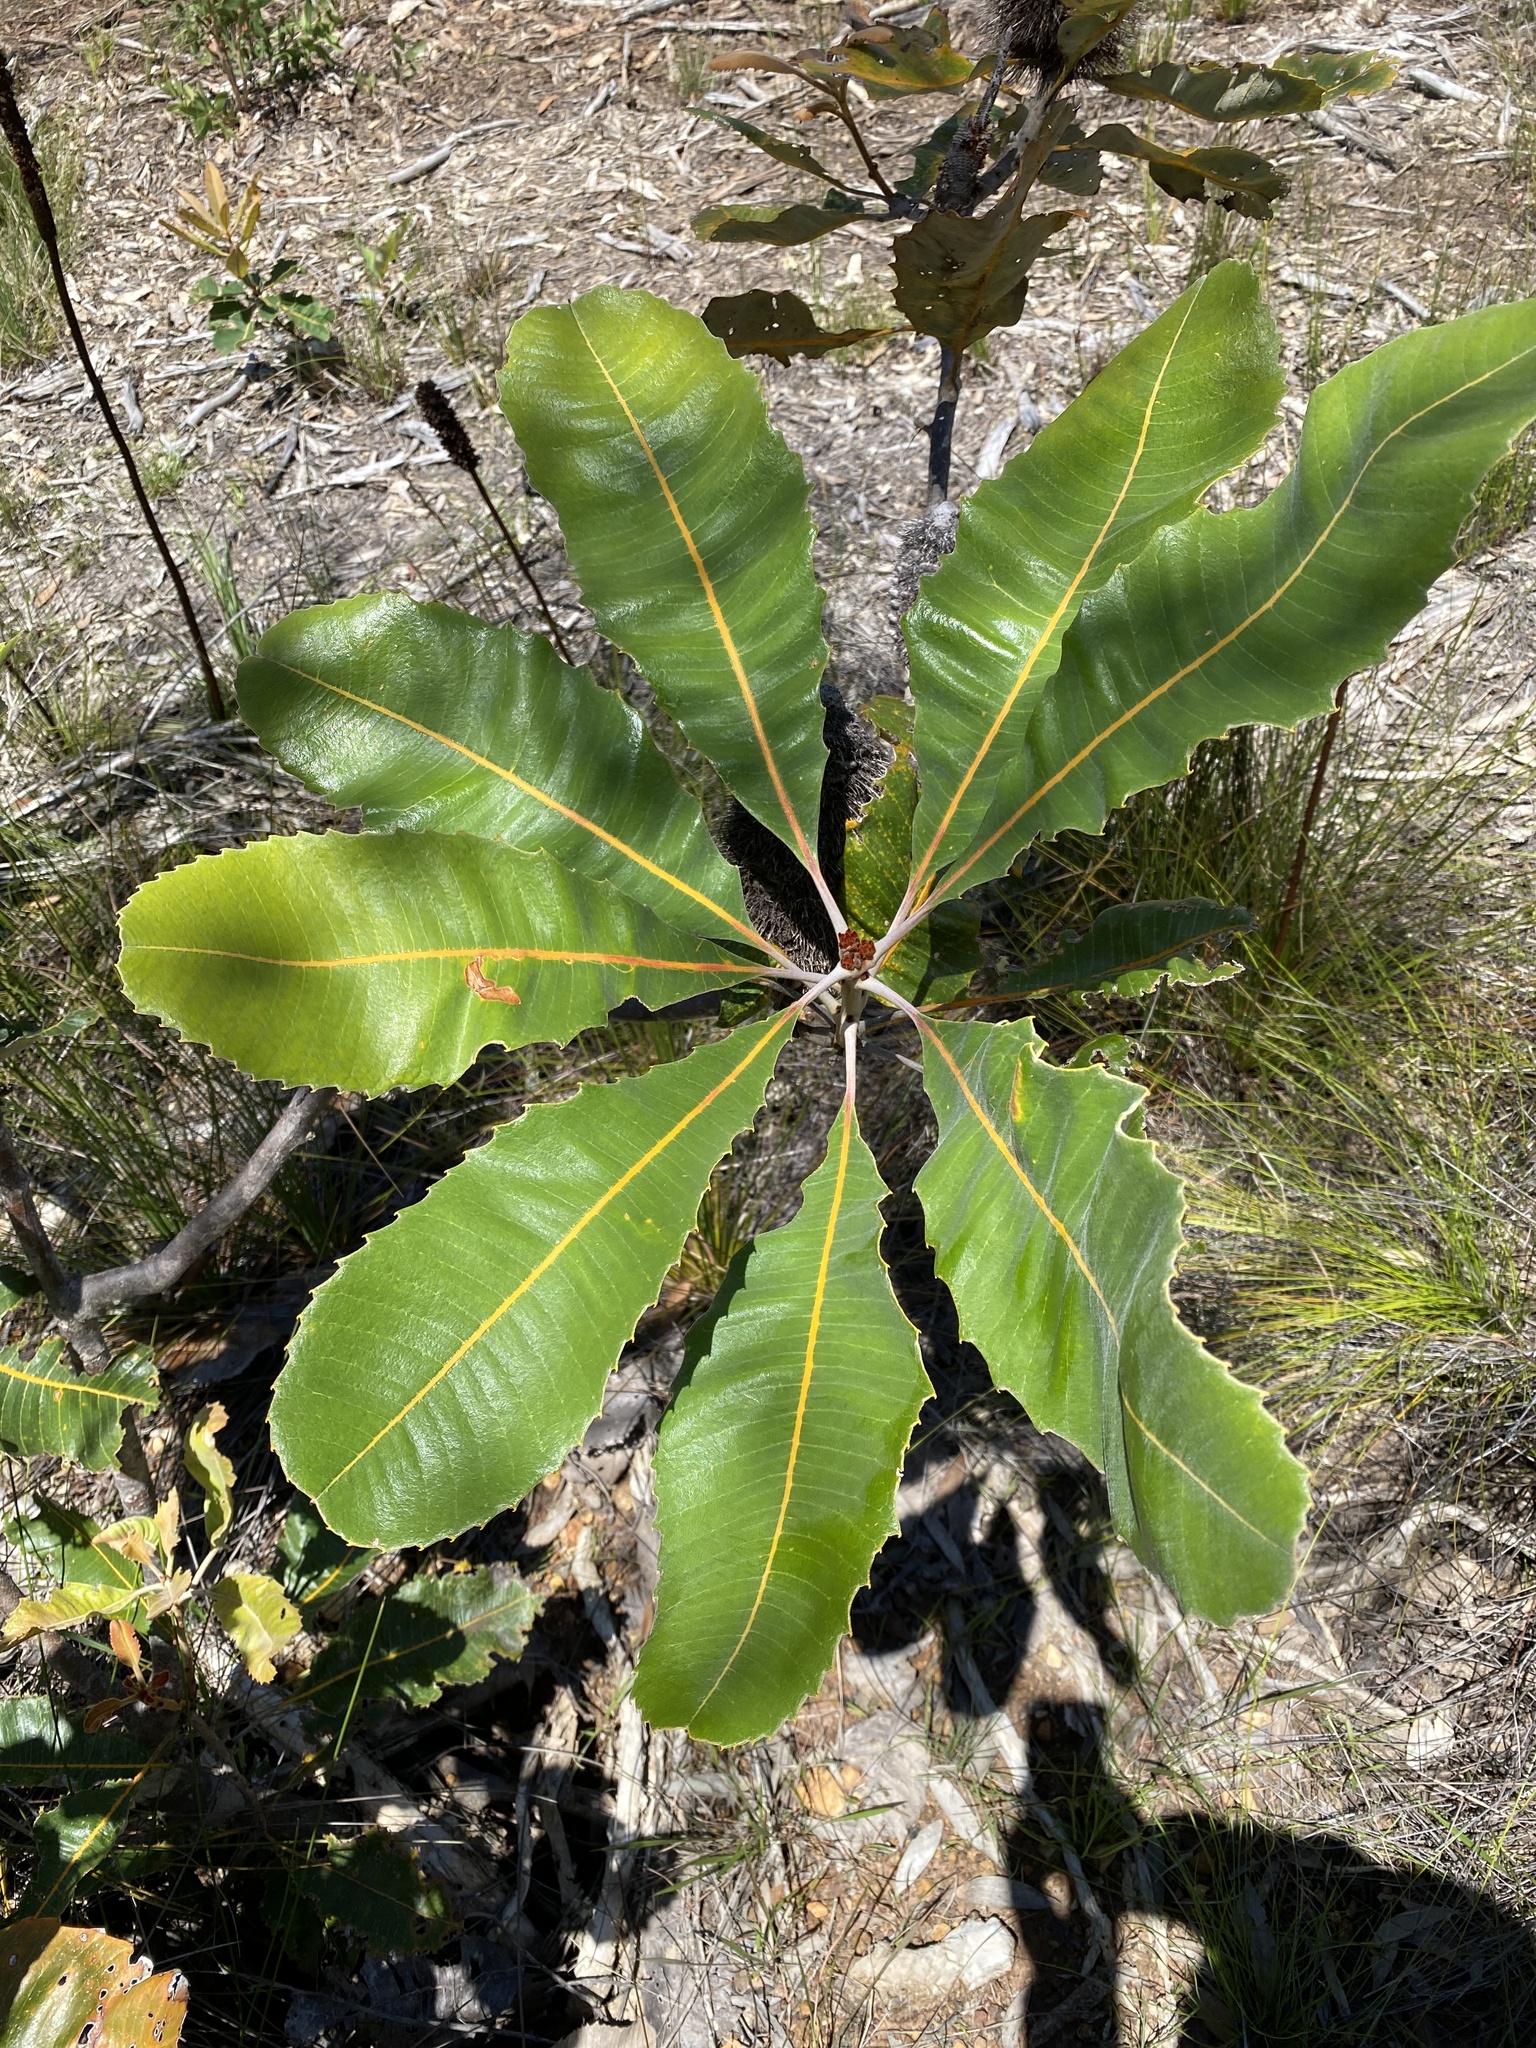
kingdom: Plantae
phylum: Tracheophyta
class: Magnoliopsida
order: Proteales
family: Proteaceae
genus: Banksia
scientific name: Banksia robur
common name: Broadleaf banksia
